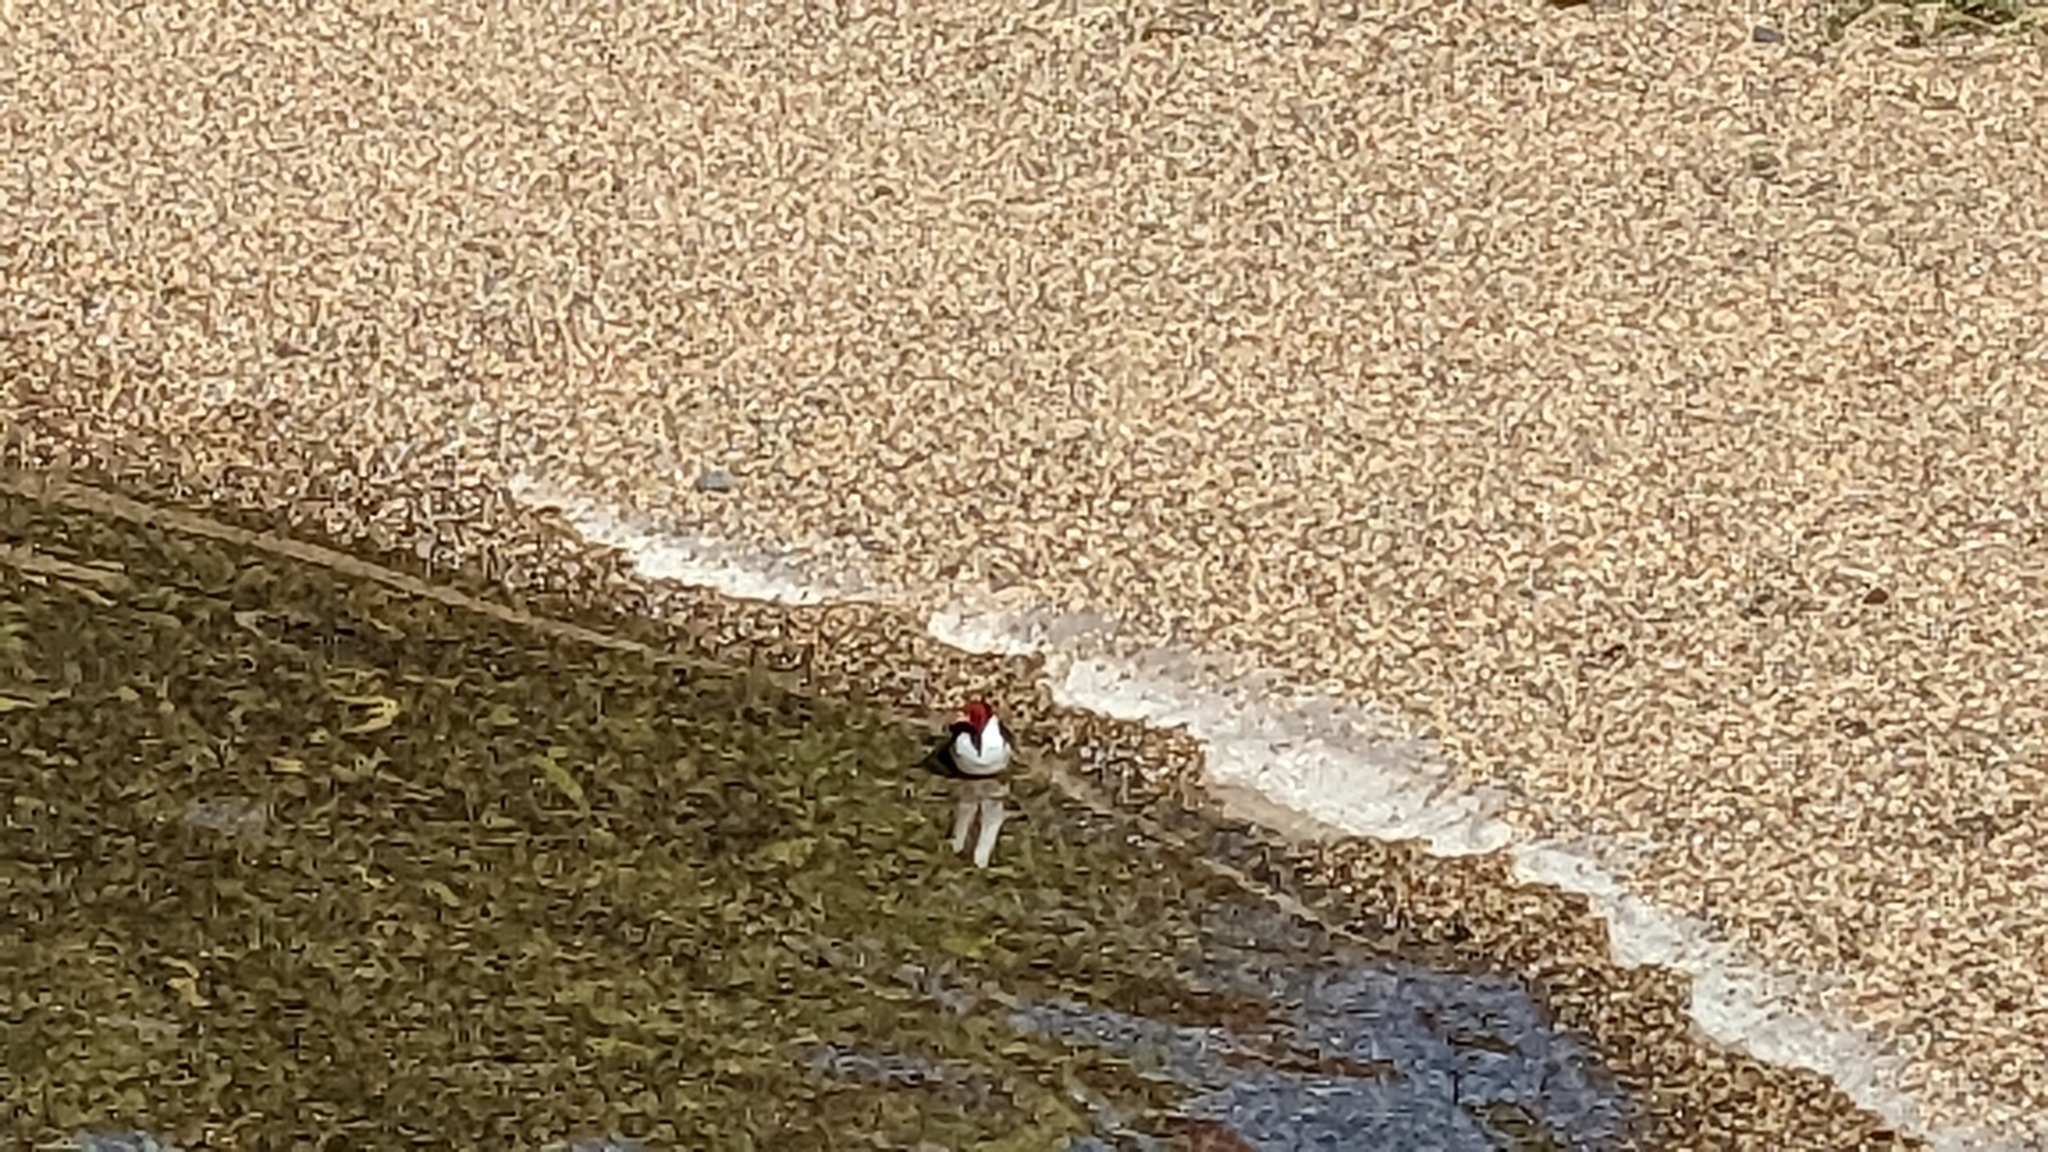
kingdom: Animalia
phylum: Chordata
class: Aves
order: Passeriformes
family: Thraupidae
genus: Paroaria
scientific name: Paroaria capitata
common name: Yellow-billed cardinal
